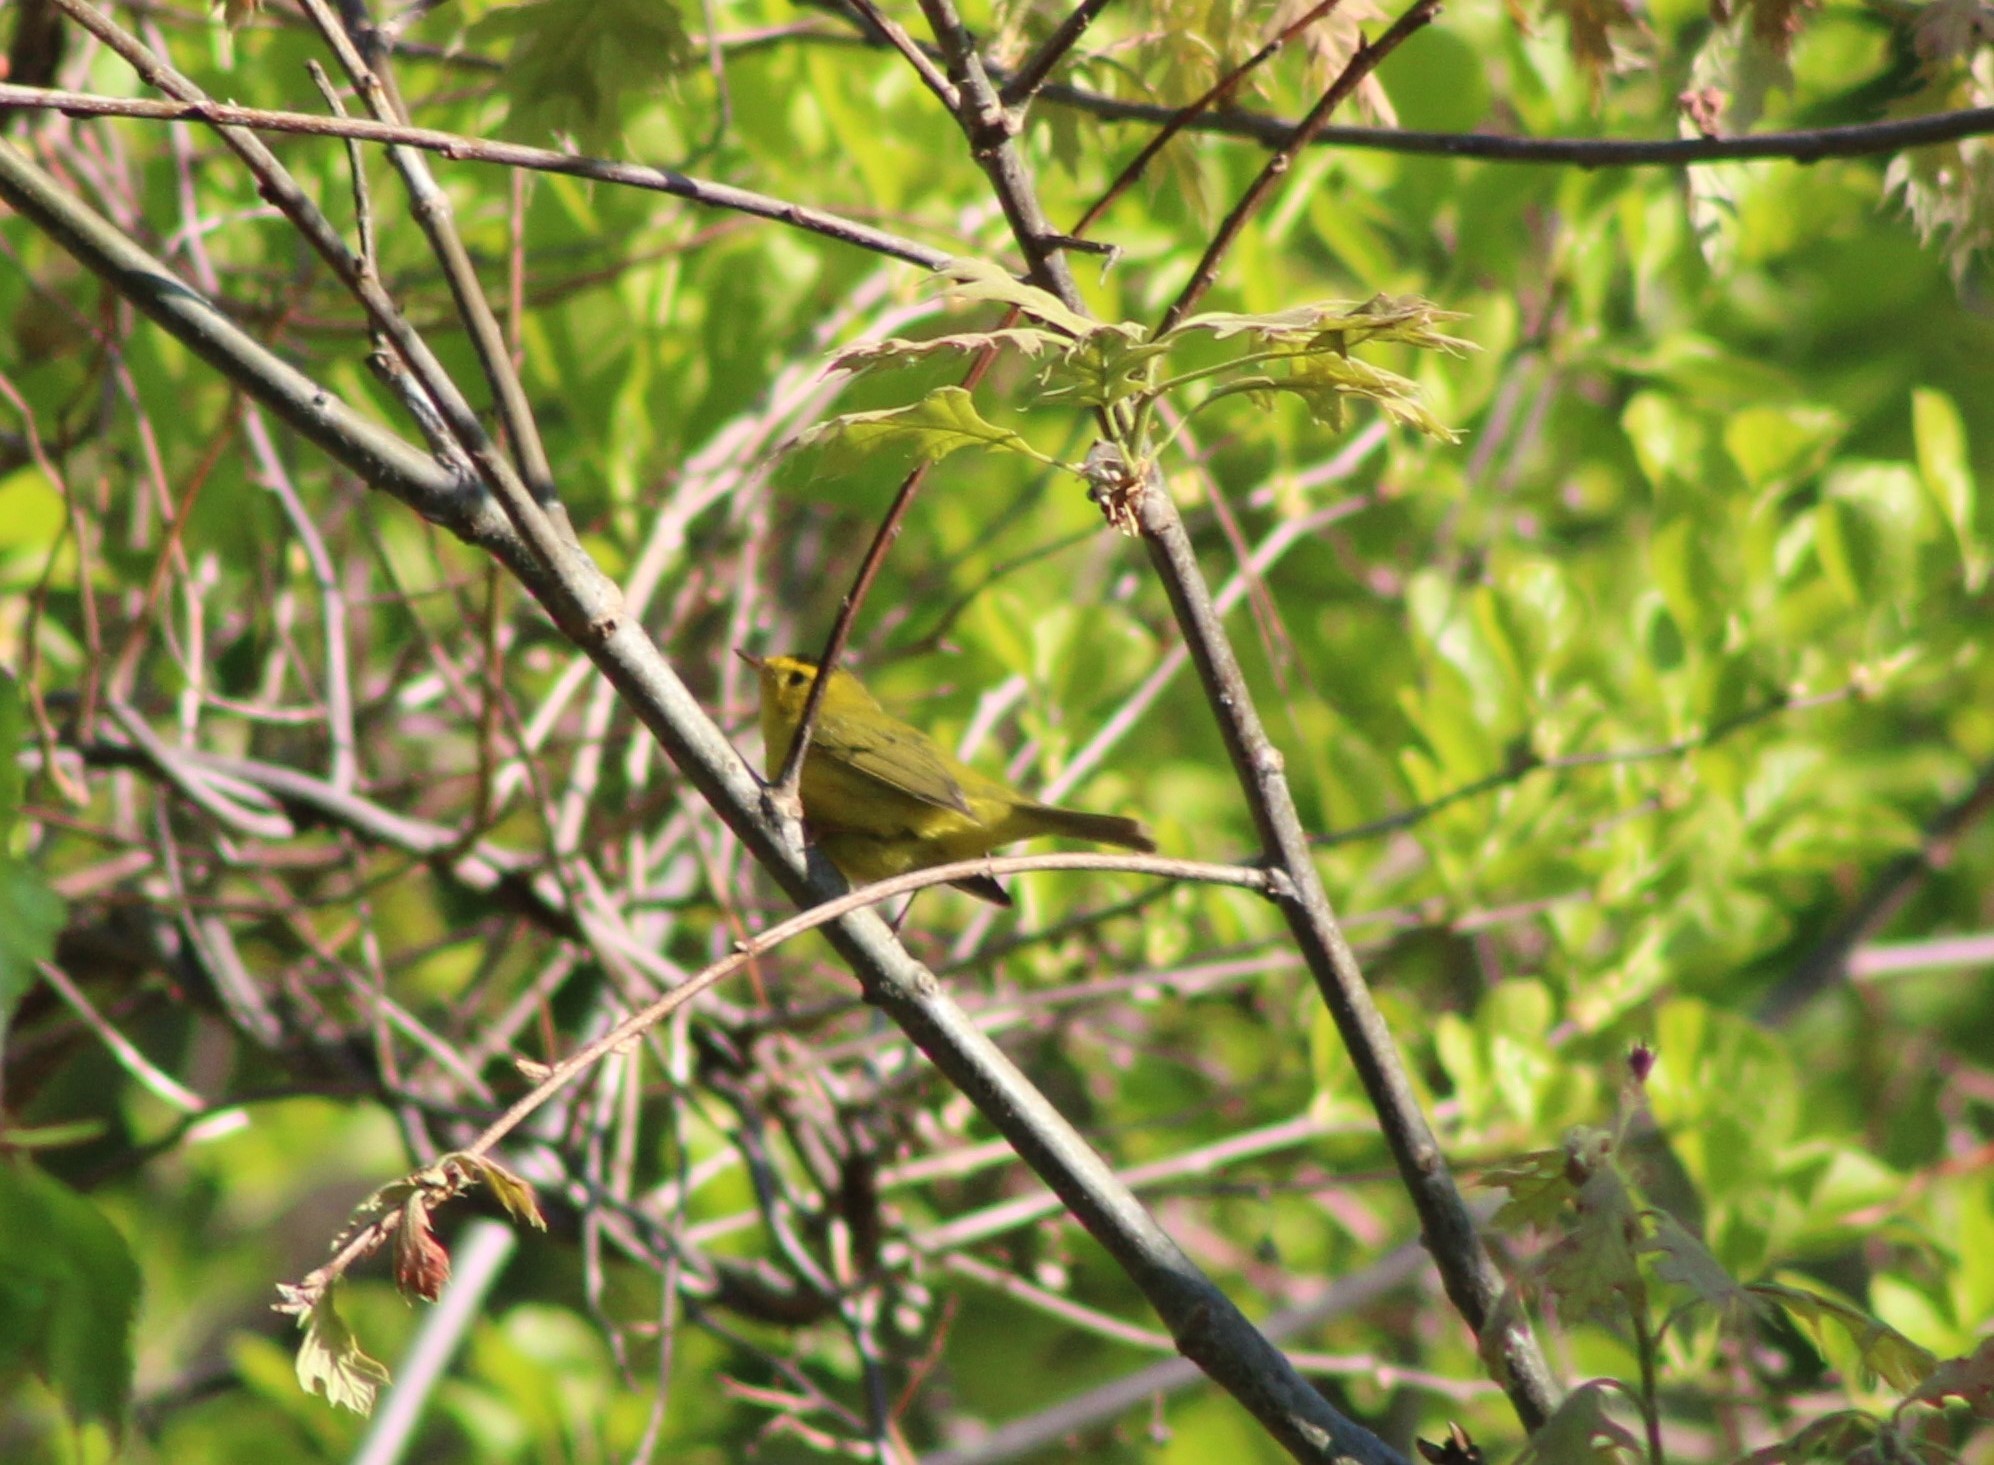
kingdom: Animalia
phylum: Chordata
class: Aves
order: Passeriformes
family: Parulidae
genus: Cardellina
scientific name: Cardellina pusilla
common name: Wilson's warbler
